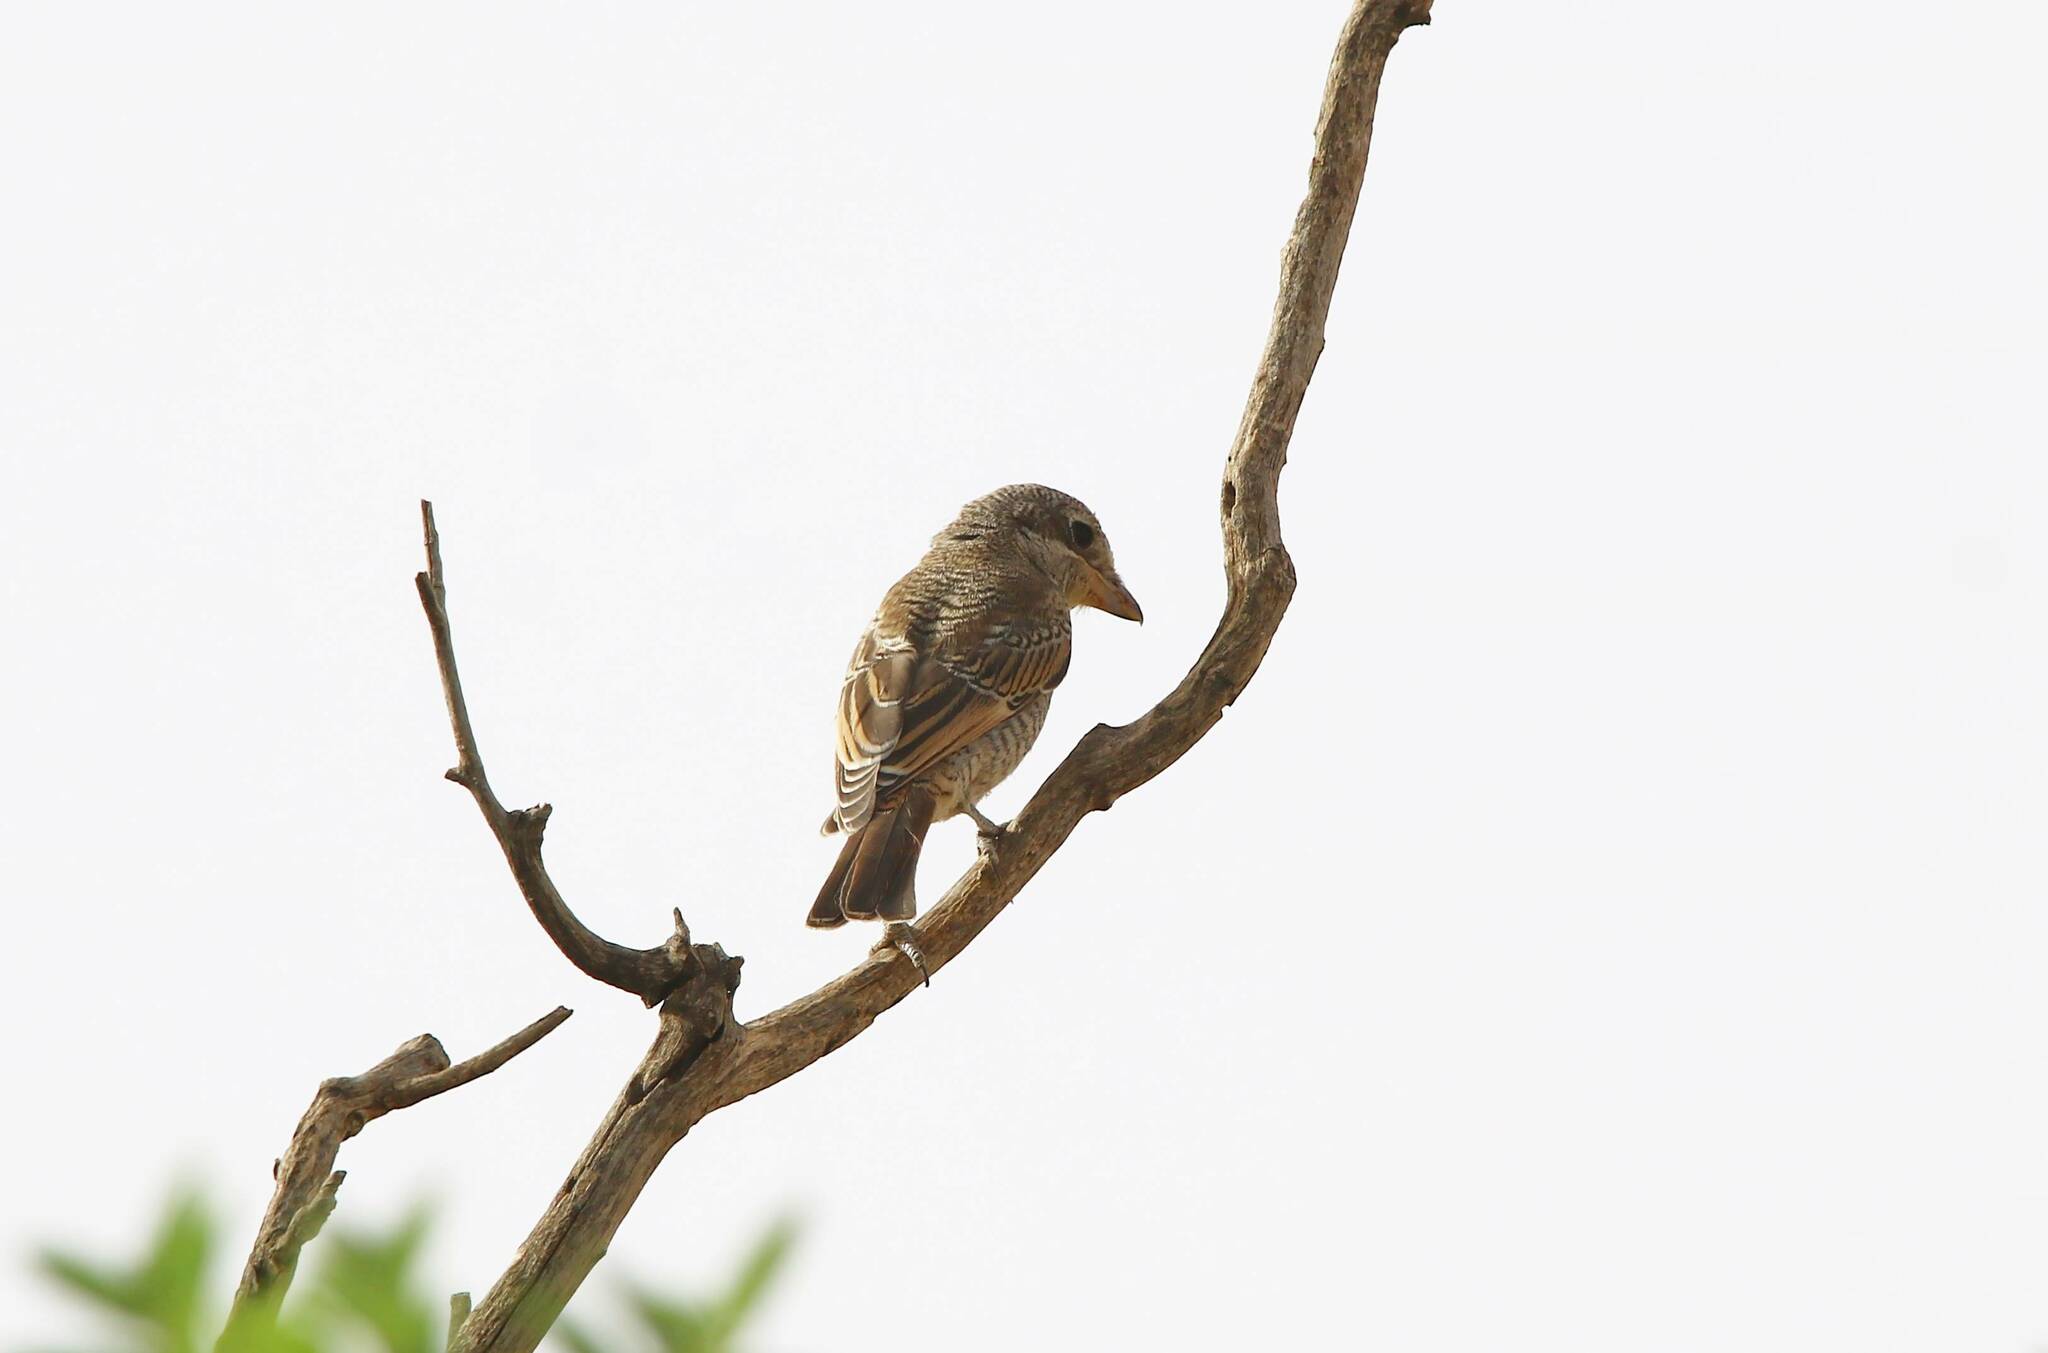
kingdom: Animalia
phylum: Chordata
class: Aves
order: Passeriformes
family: Laniidae
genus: Lanius
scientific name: Lanius senator
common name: Woodchat shrike
